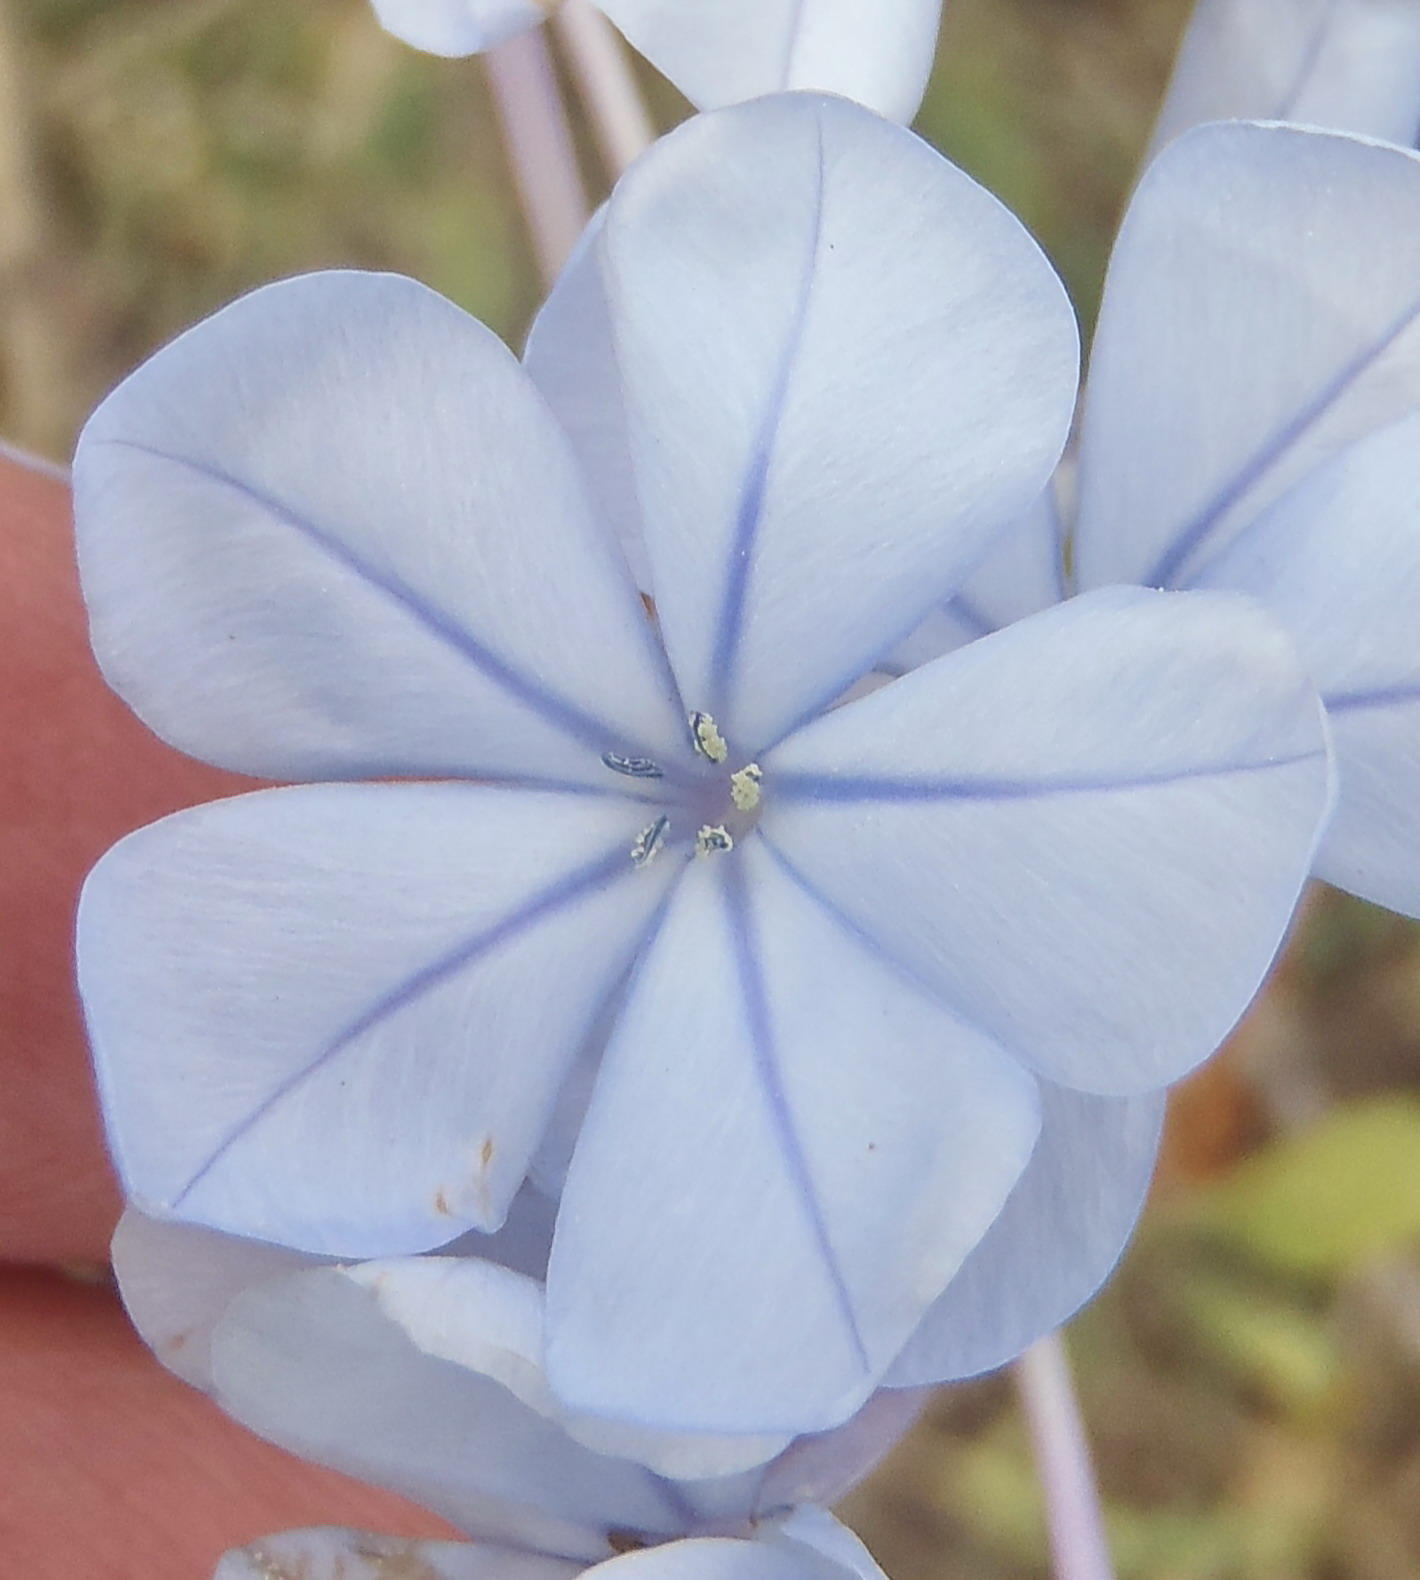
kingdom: Plantae
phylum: Tracheophyta
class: Magnoliopsida
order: Caryophyllales
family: Plumbaginaceae
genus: Plumbago
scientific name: Plumbago auriculata
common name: Cape leadwort
